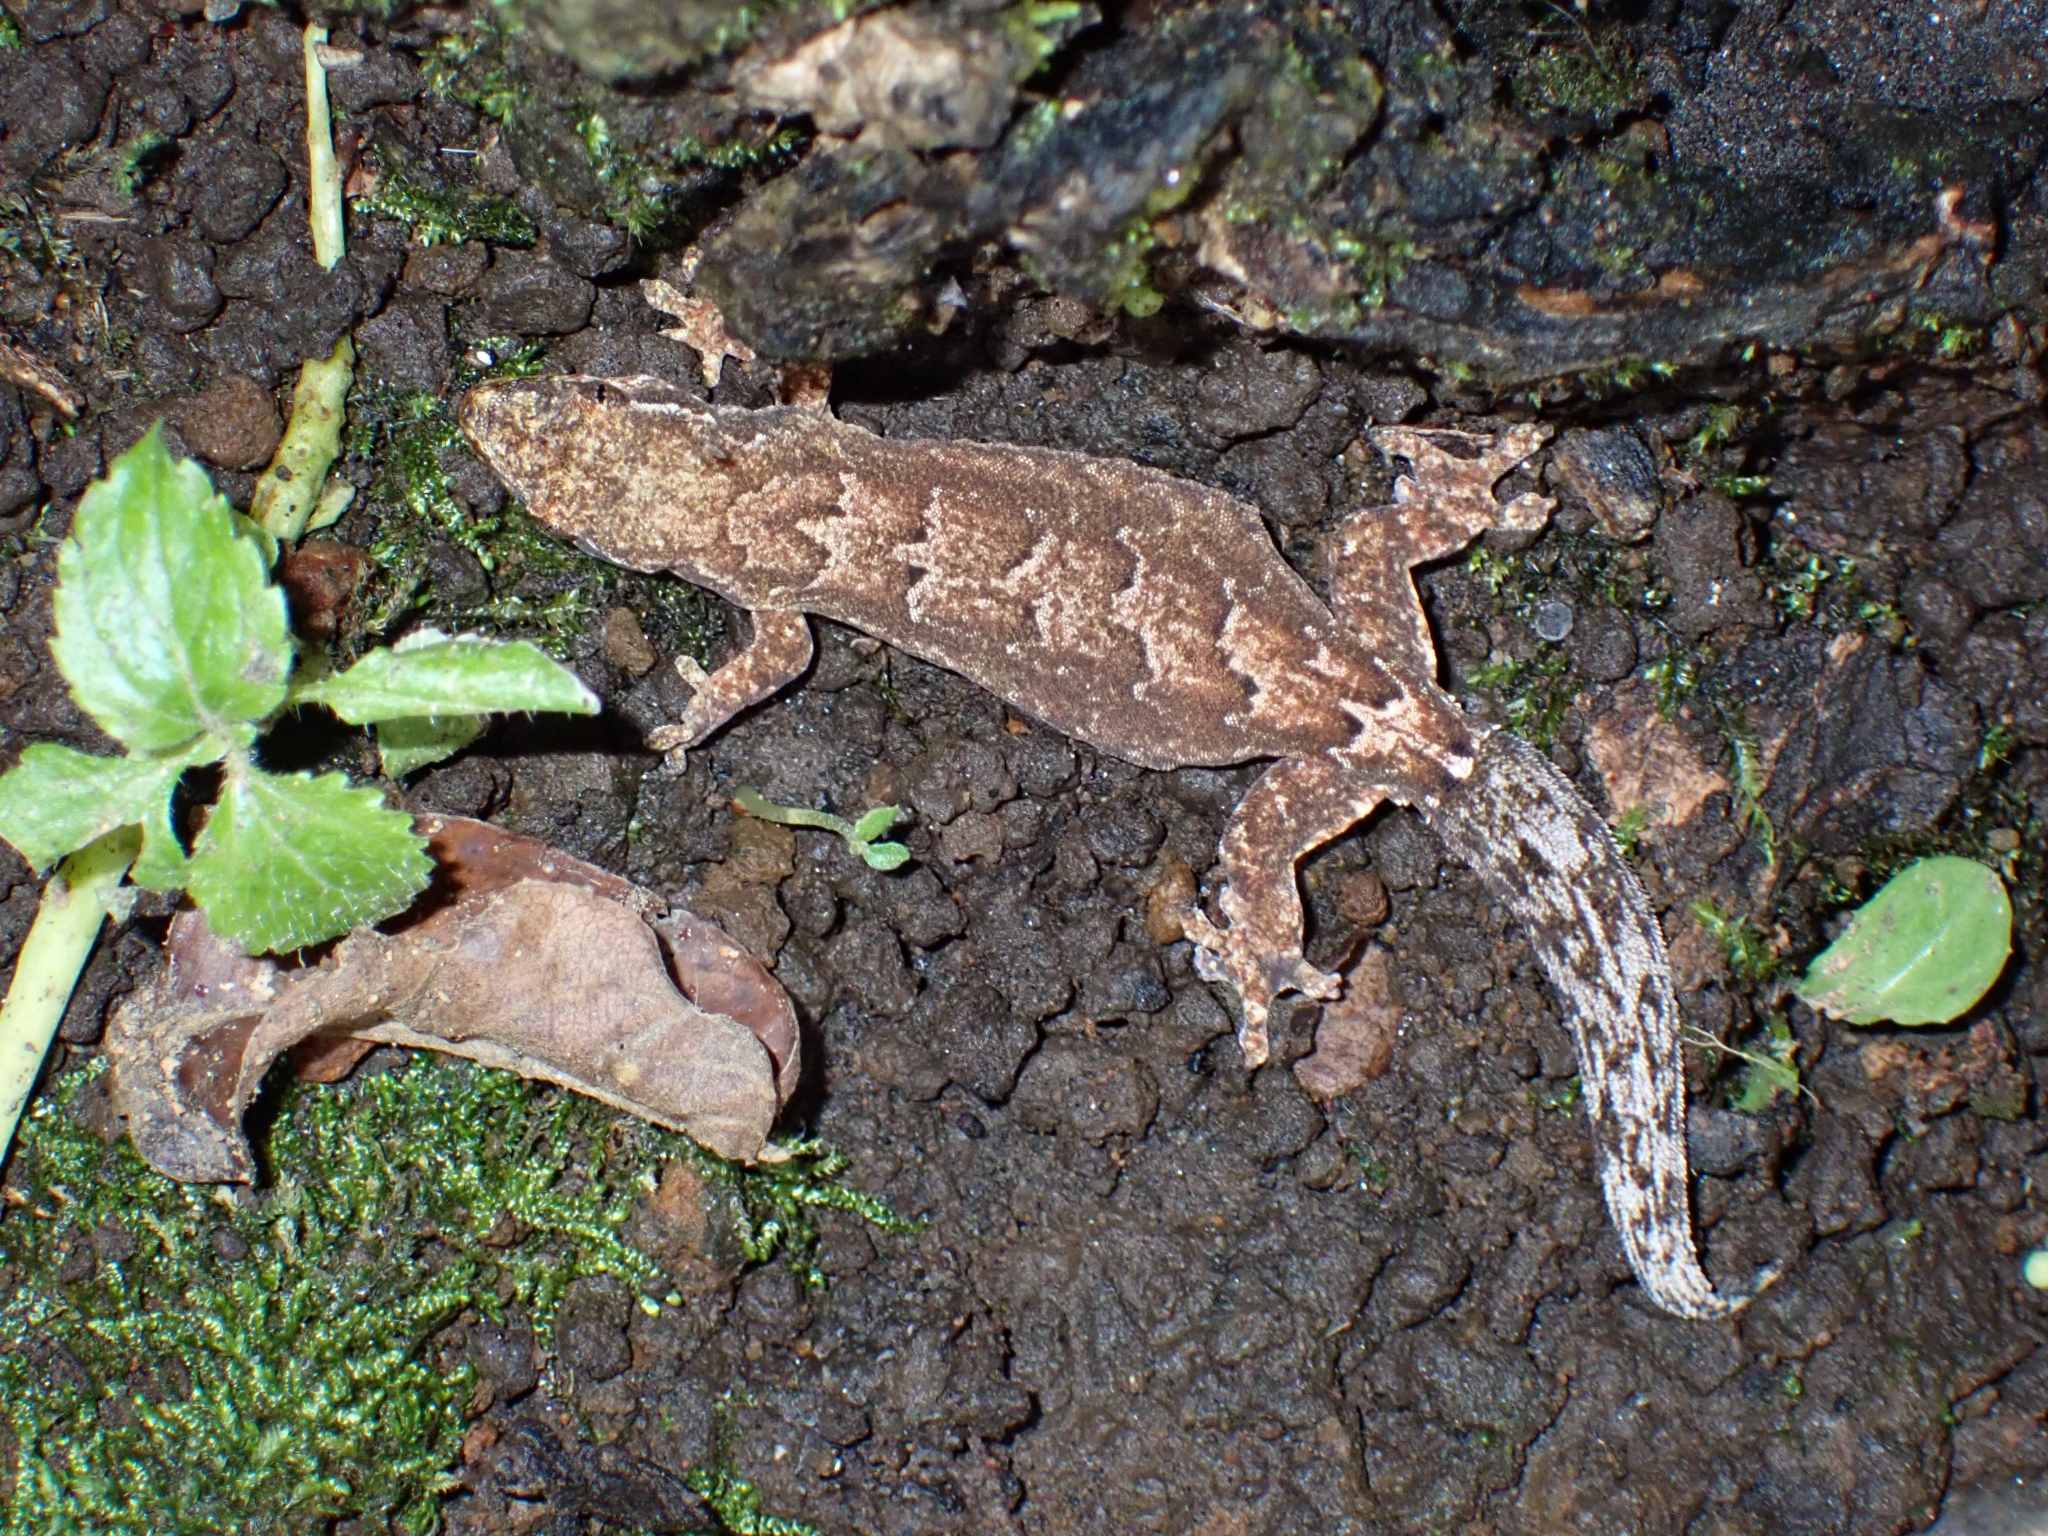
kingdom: Animalia
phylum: Chordata
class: Squamata
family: Gekkonidae
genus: Lepidodactylus
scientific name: Lepidodactylus lugubris
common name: Mourning gecko
